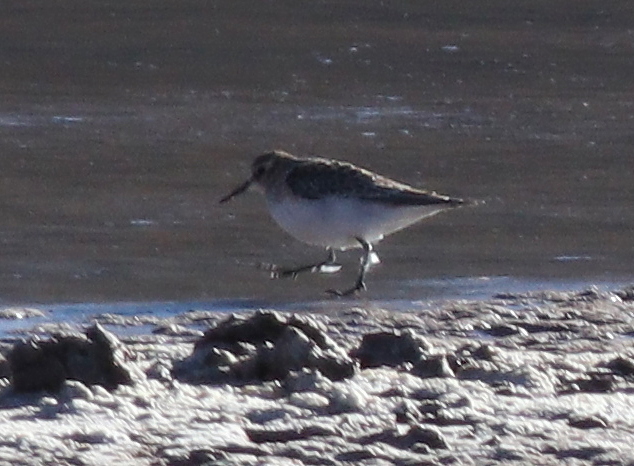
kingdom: Animalia
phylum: Chordata
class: Aves
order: Charadriiformes
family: Scolopacidae
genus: Calidris
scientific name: Calidris bairdii
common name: Baird's sandpiper
